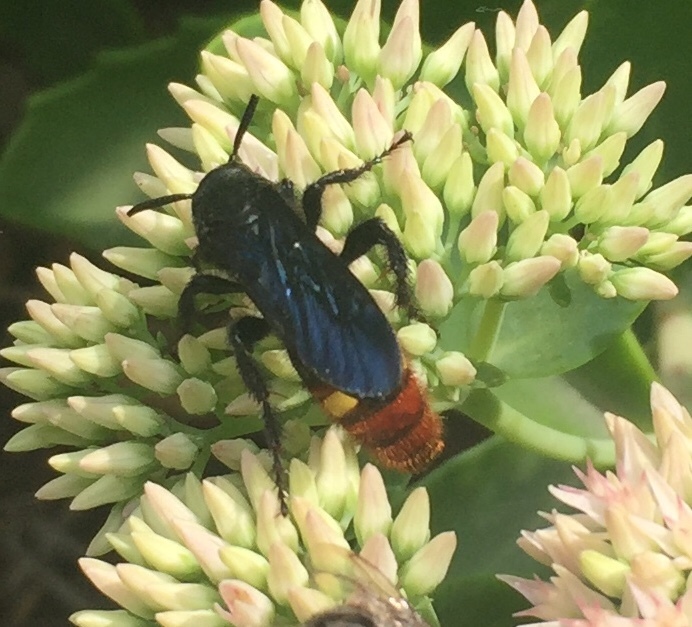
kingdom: Animalia
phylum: Arthropoda
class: Insecta
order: Hymenoptera
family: Scoliidae
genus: Scolia
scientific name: Scolia dubia
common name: Blue-winged scoliid wasp
